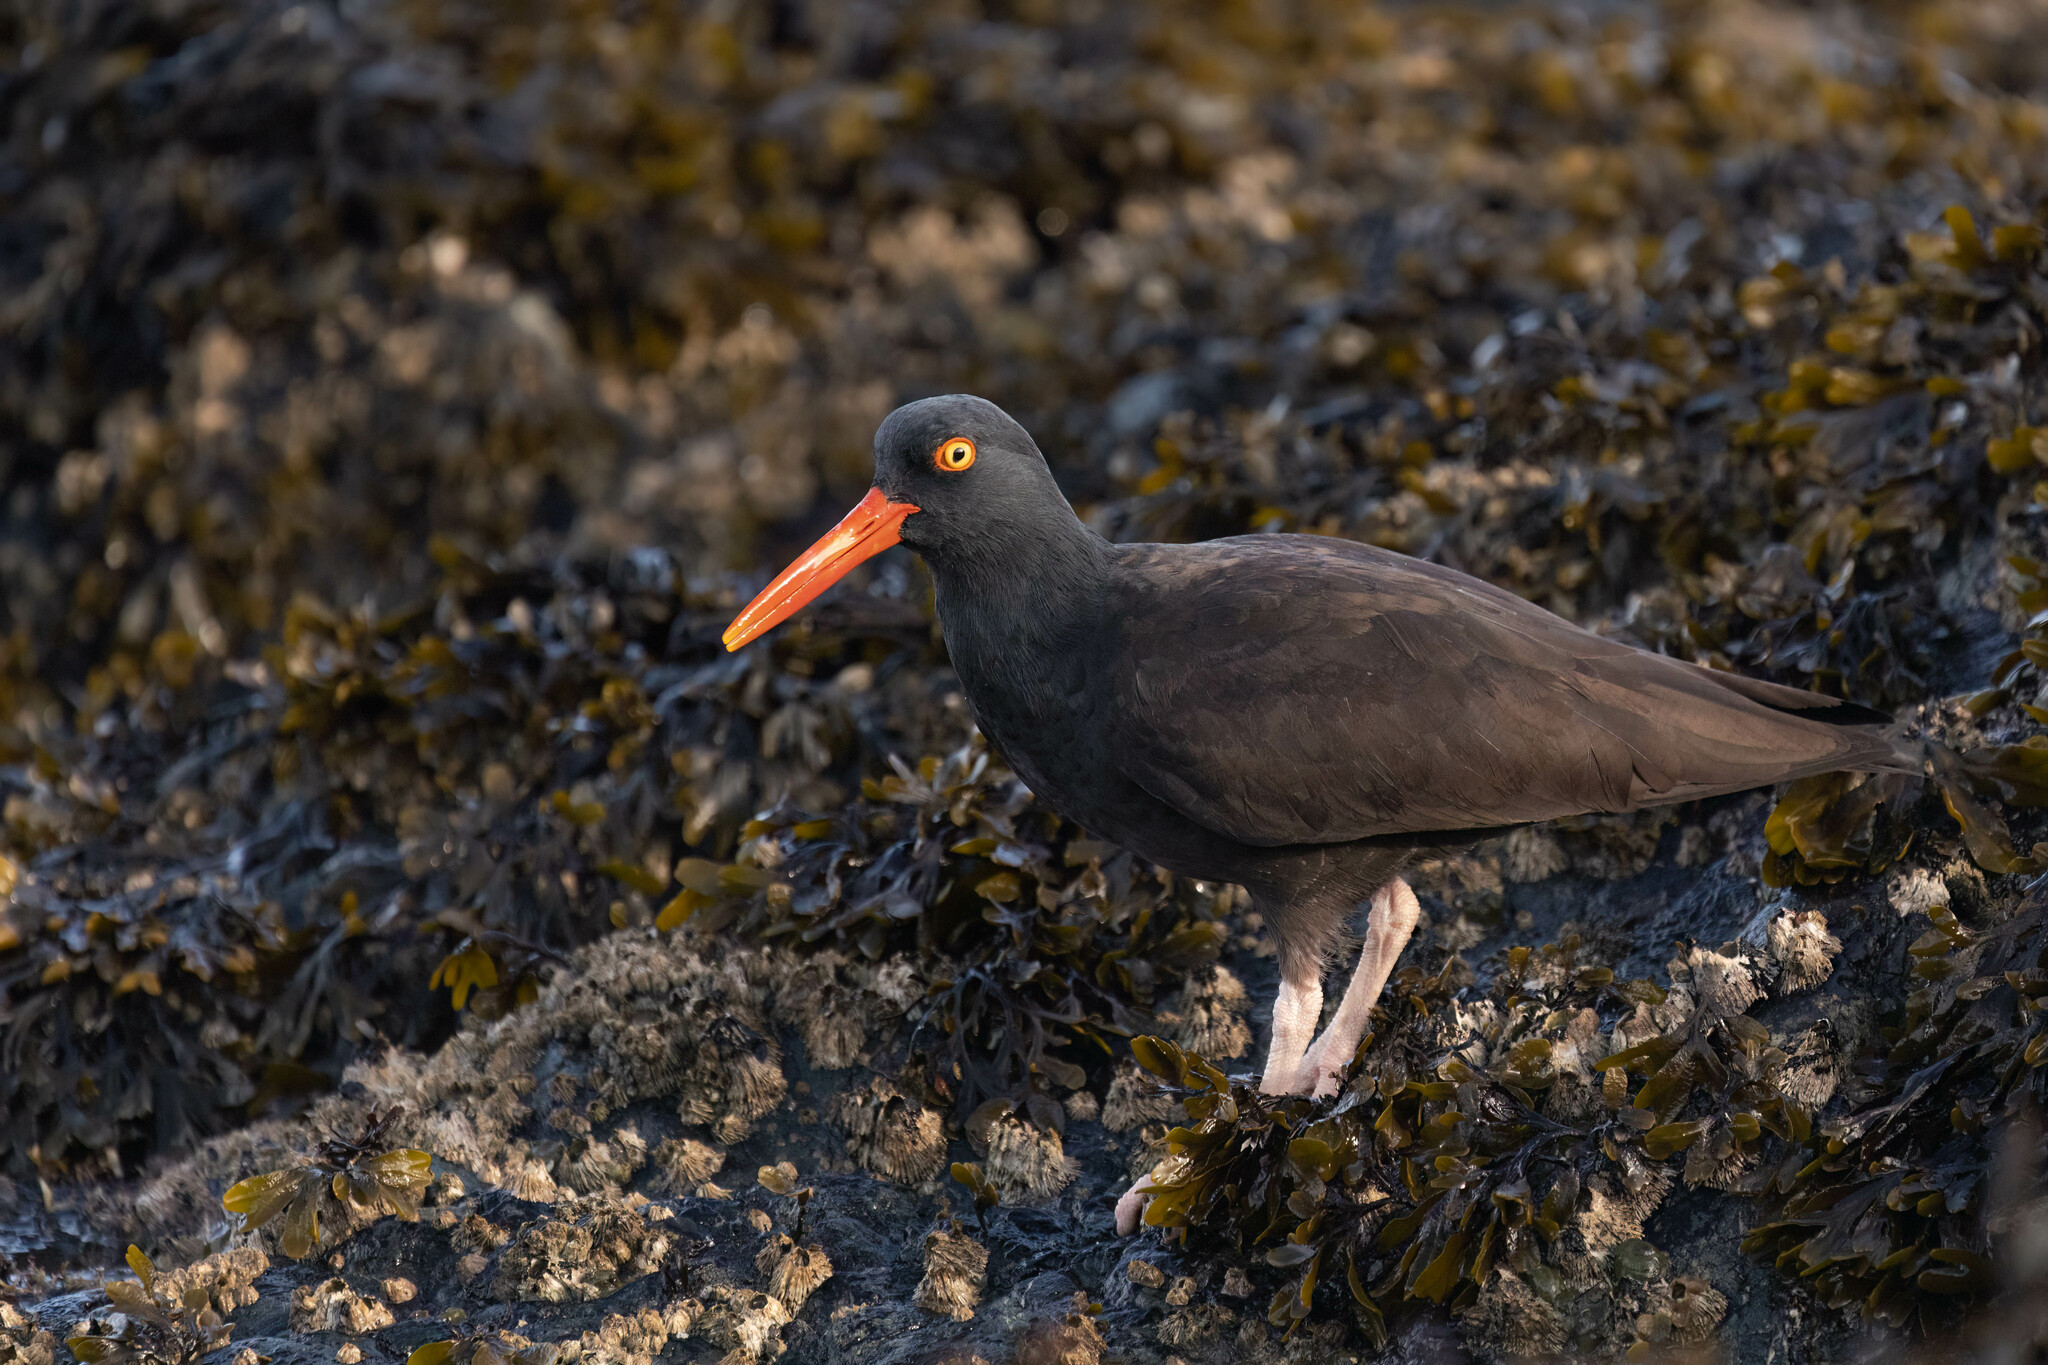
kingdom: Animalia
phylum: Chordata
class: Aves
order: Charadriiformes
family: Haematopodidae
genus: Haematopus
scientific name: Haematopus bachmani
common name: Black oystercatcher
